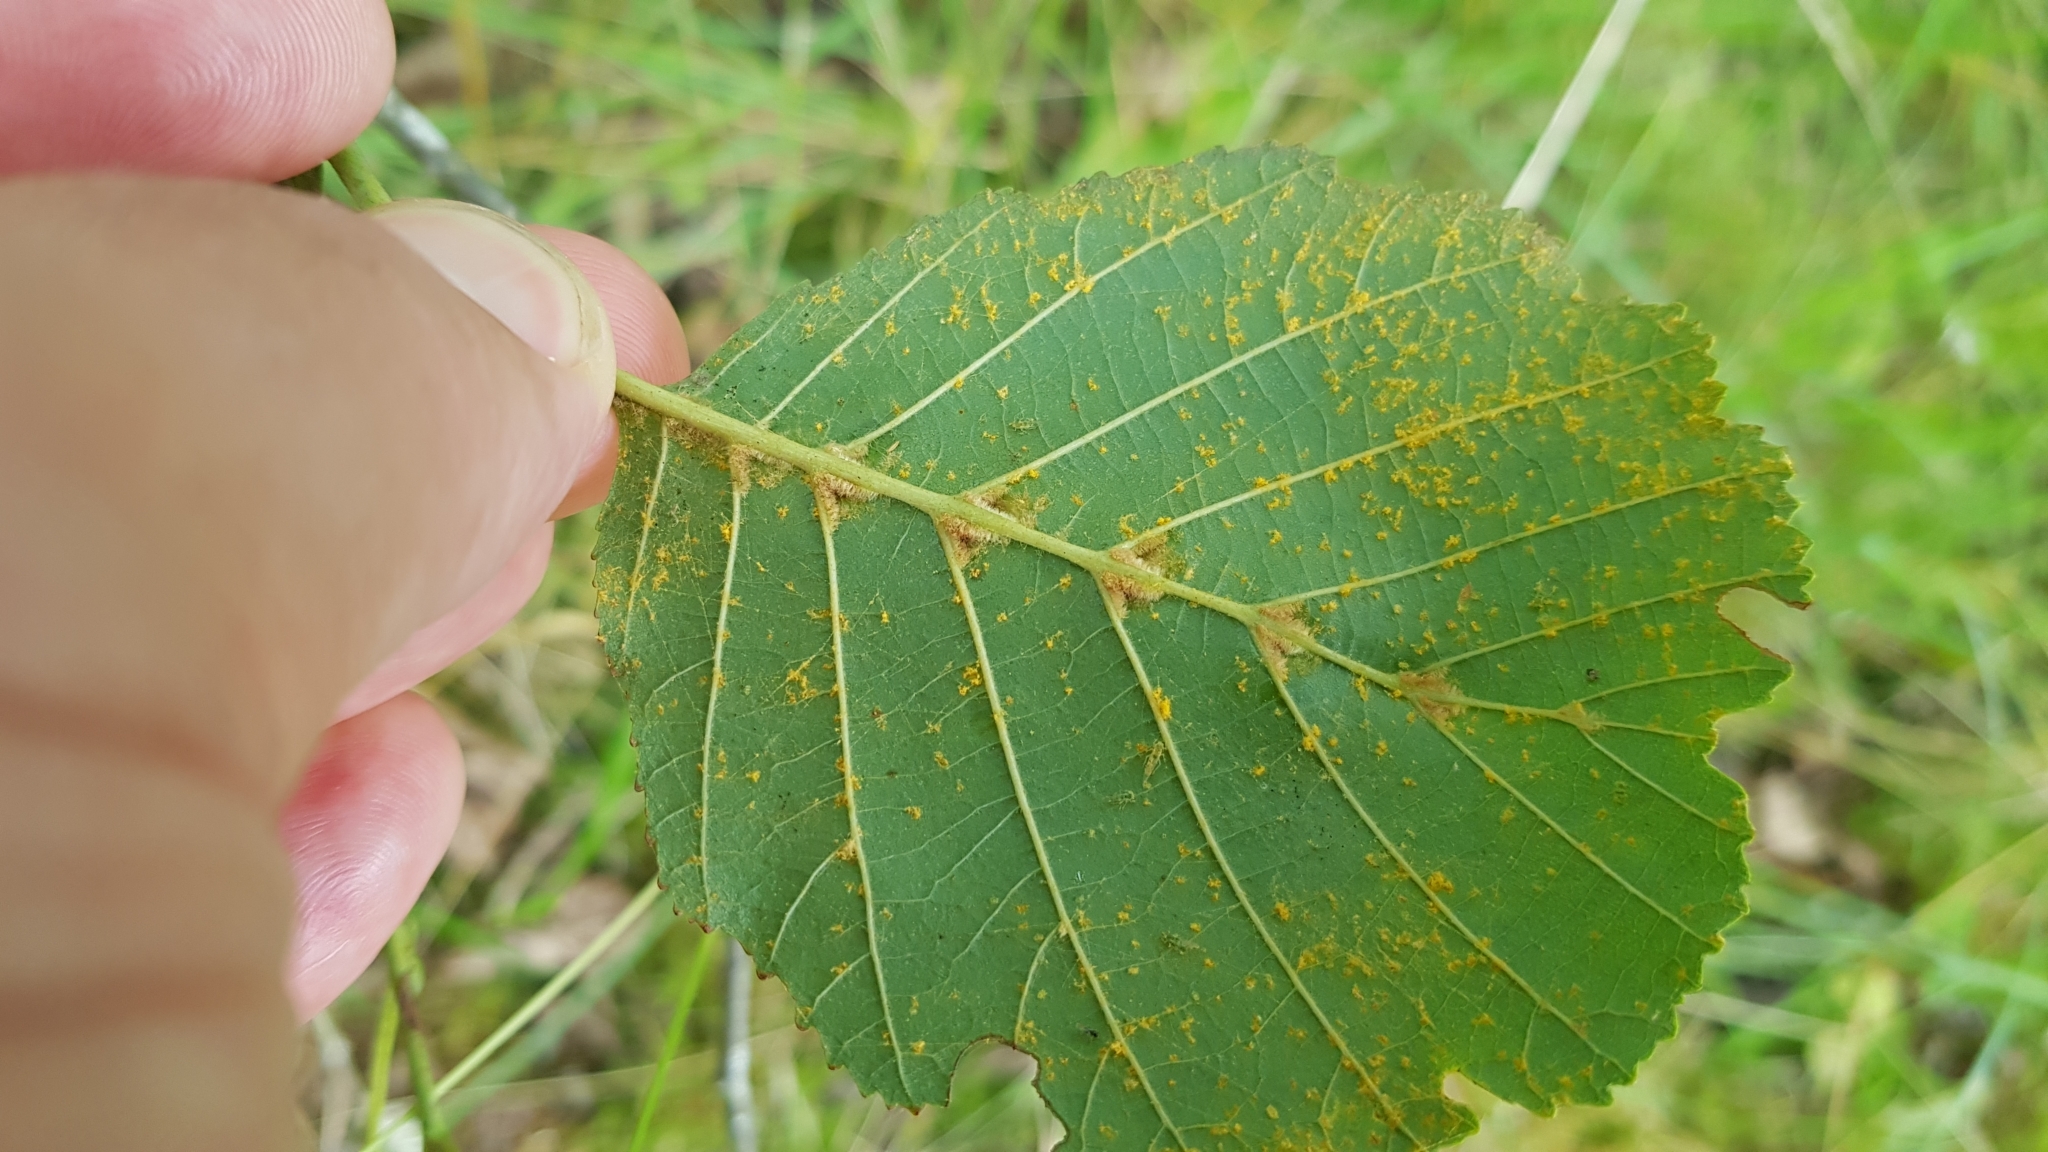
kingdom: Animalia
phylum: Arthropoda
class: Arachnida
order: Trombidiformes
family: Eriophyidae
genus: Eriophyes
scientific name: Eriophyes inangulis
